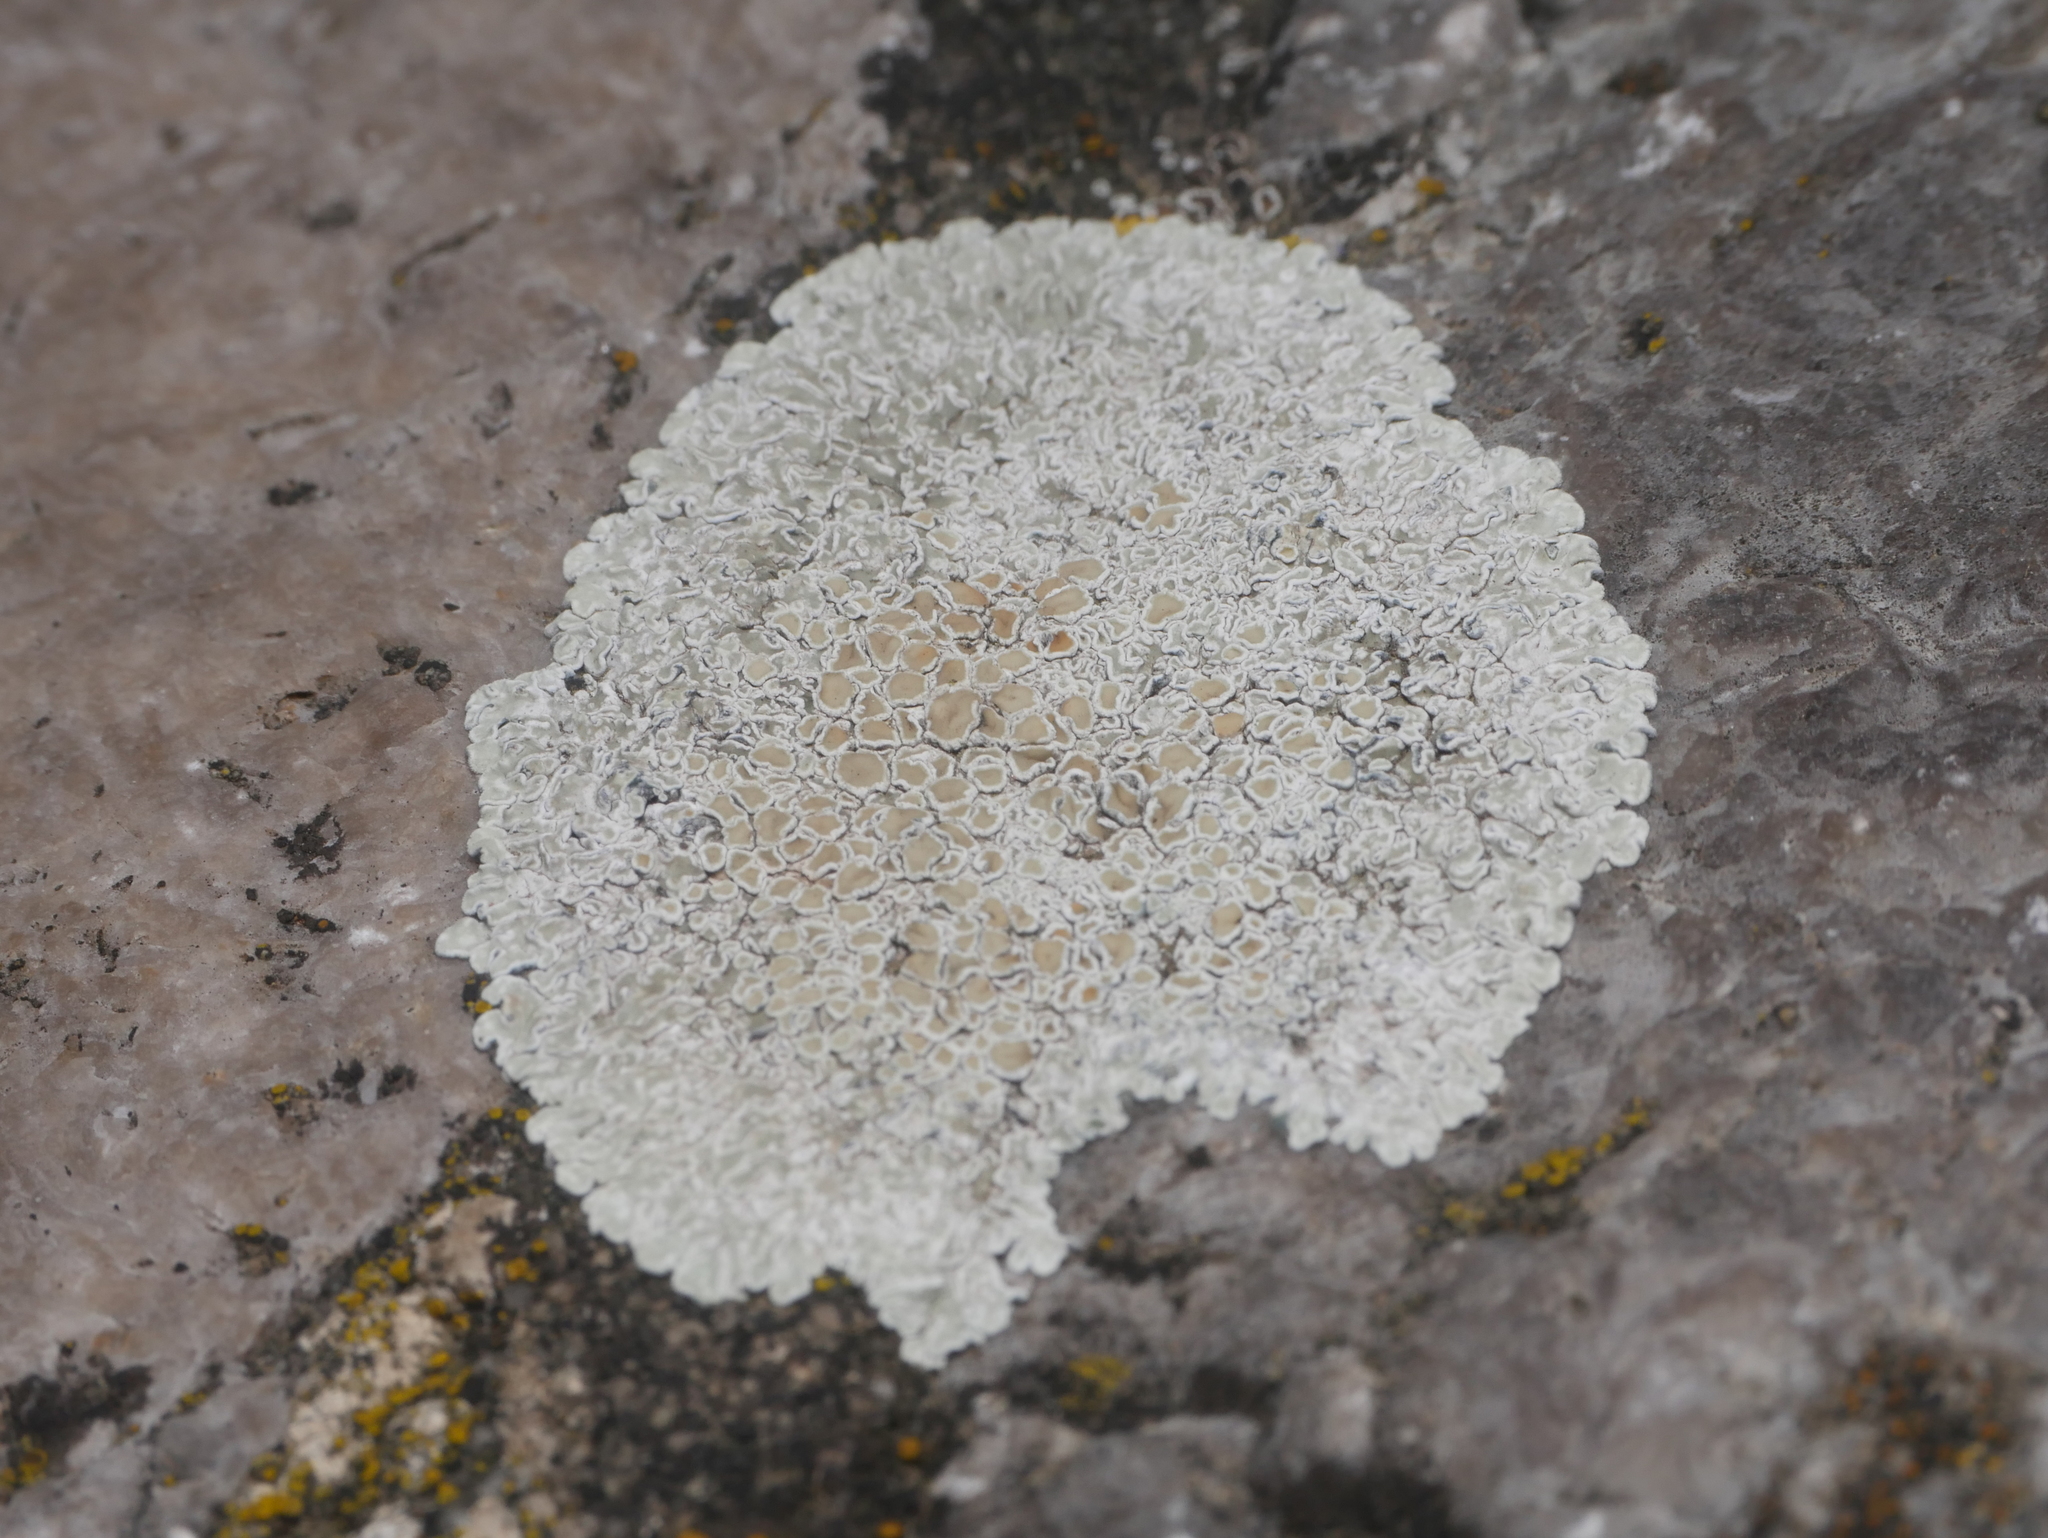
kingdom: Fungi
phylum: Ascomycota
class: Lecanoromycetes
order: Lecanorales
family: Lecanoraceae
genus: Protoparmeliopsis
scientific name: Protoparmeliopsis muralis
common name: Stonewall rim lichen
